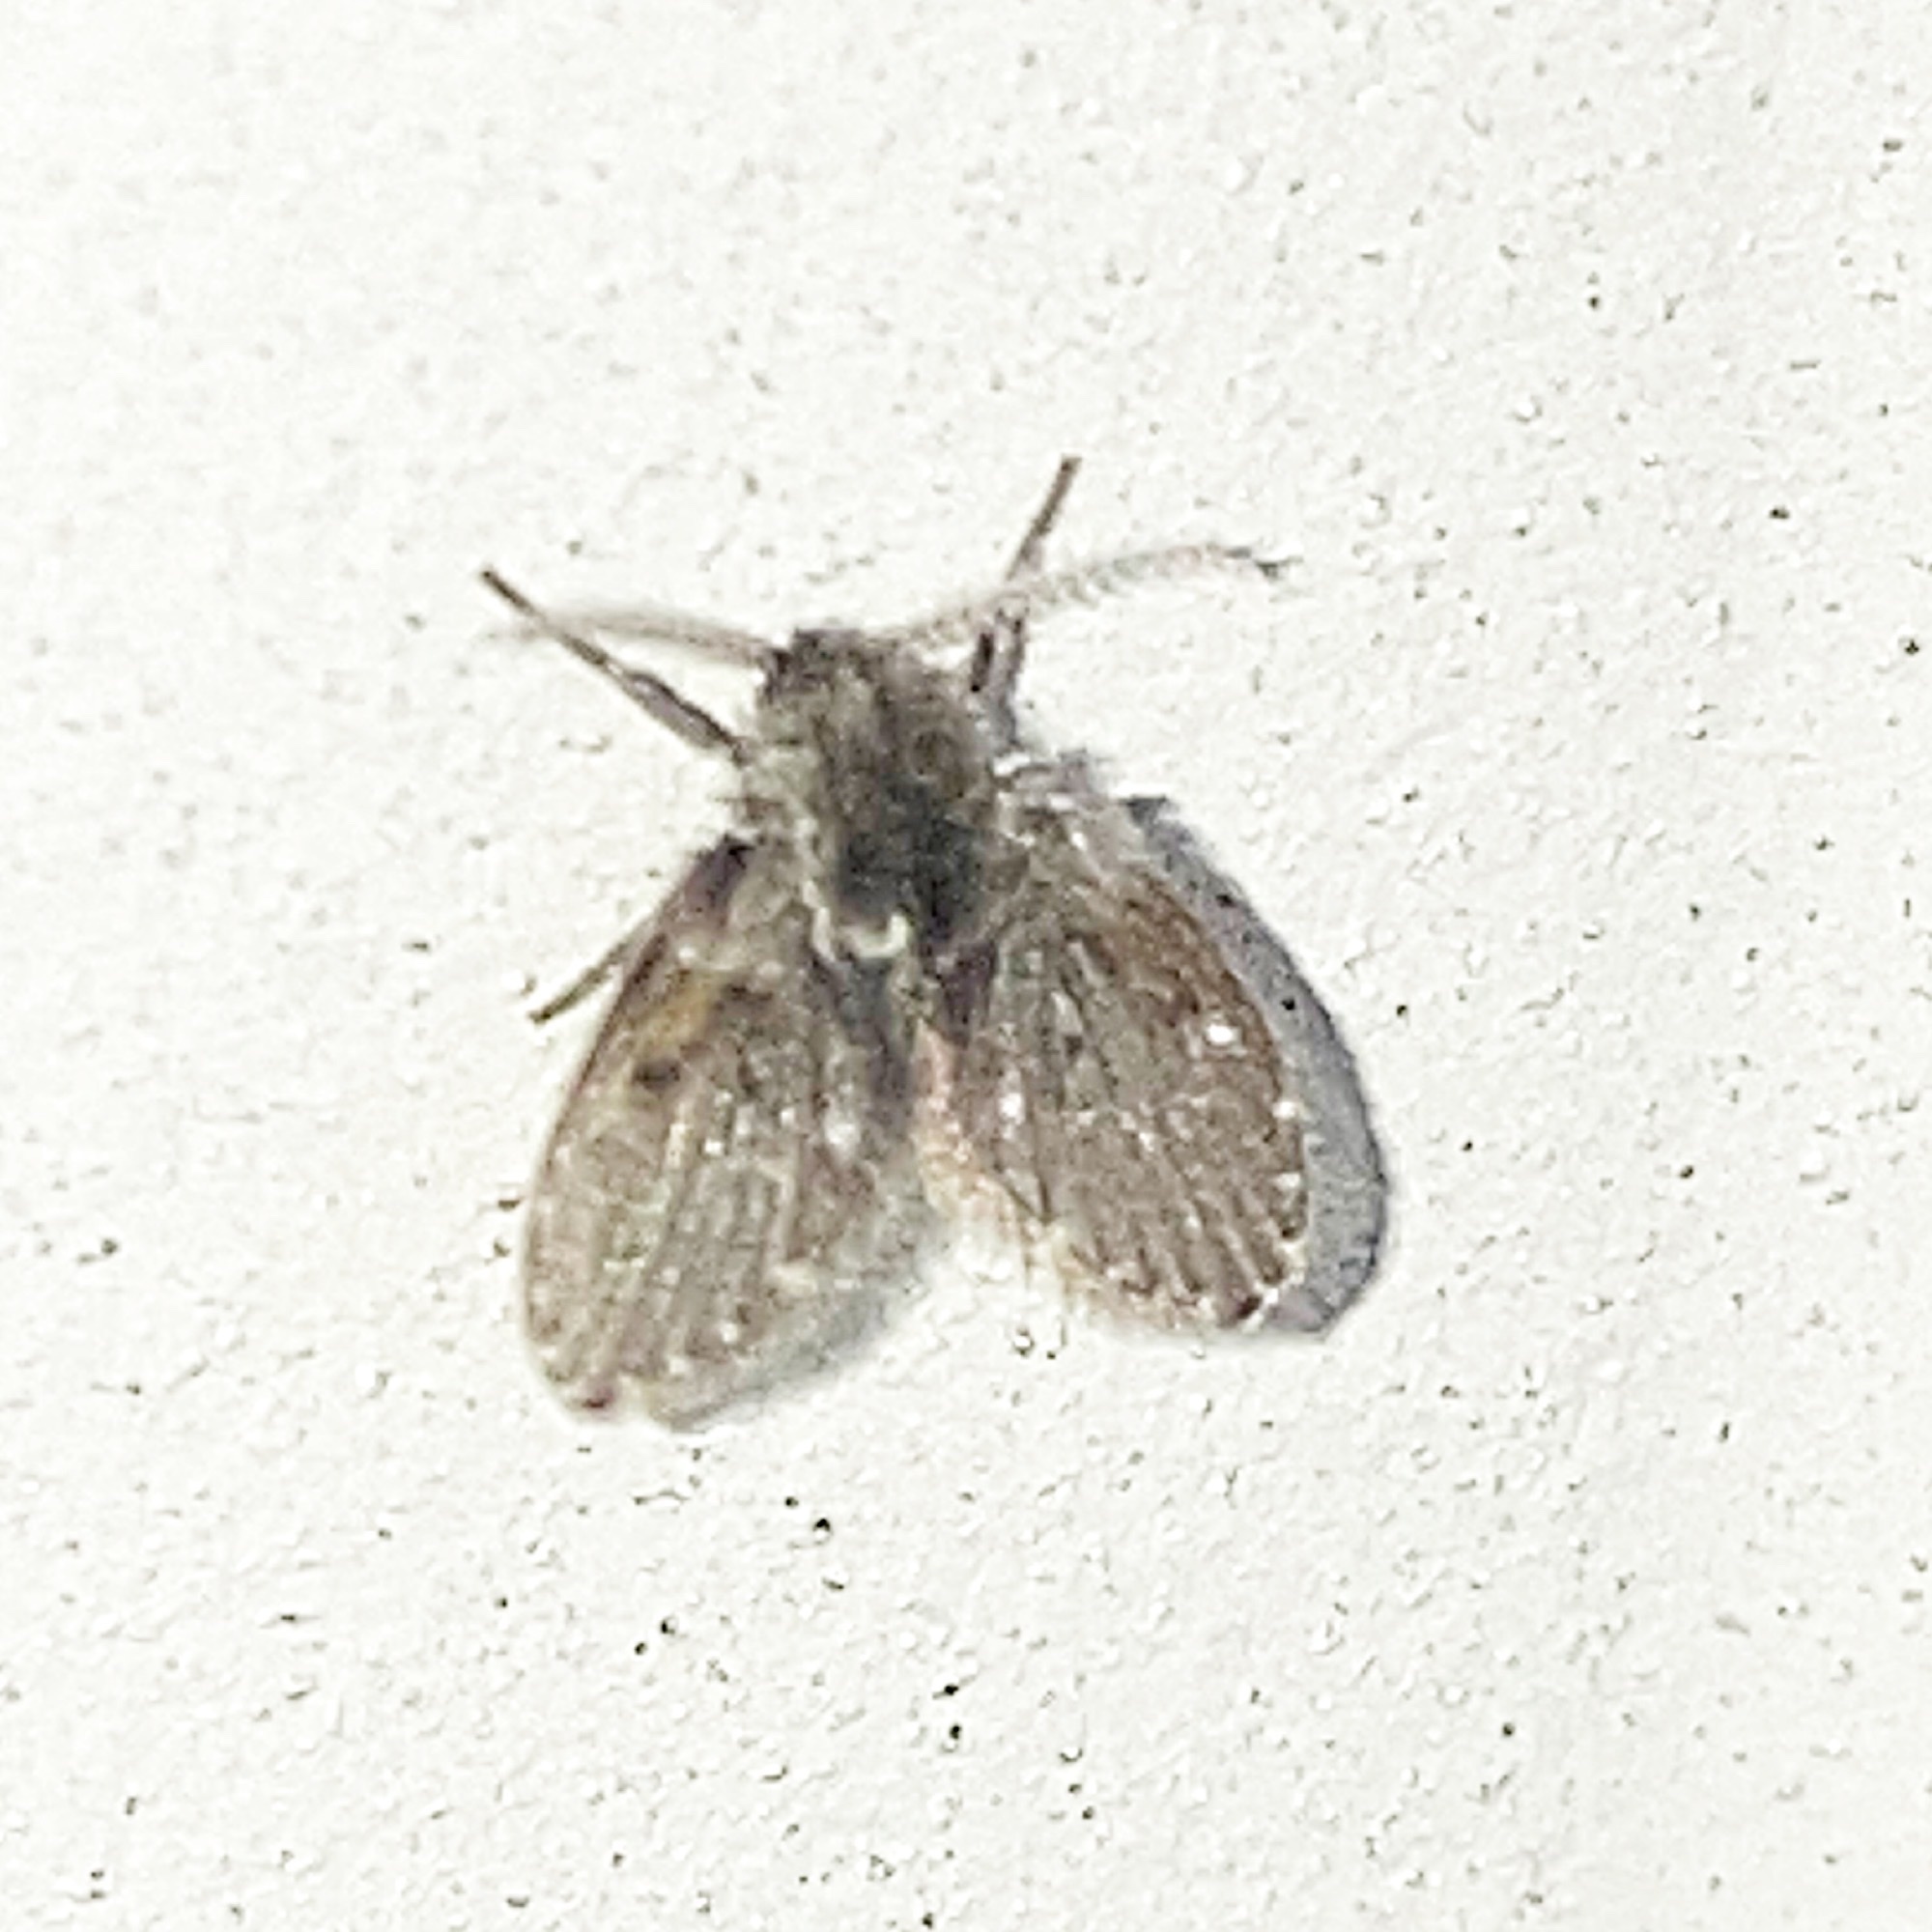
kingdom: Animalia
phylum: Arthropoda
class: Insecta
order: Diptera
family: Psychodidae
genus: Clogmia
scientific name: Clogmia albipunctatus
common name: White-spotted moth fly
